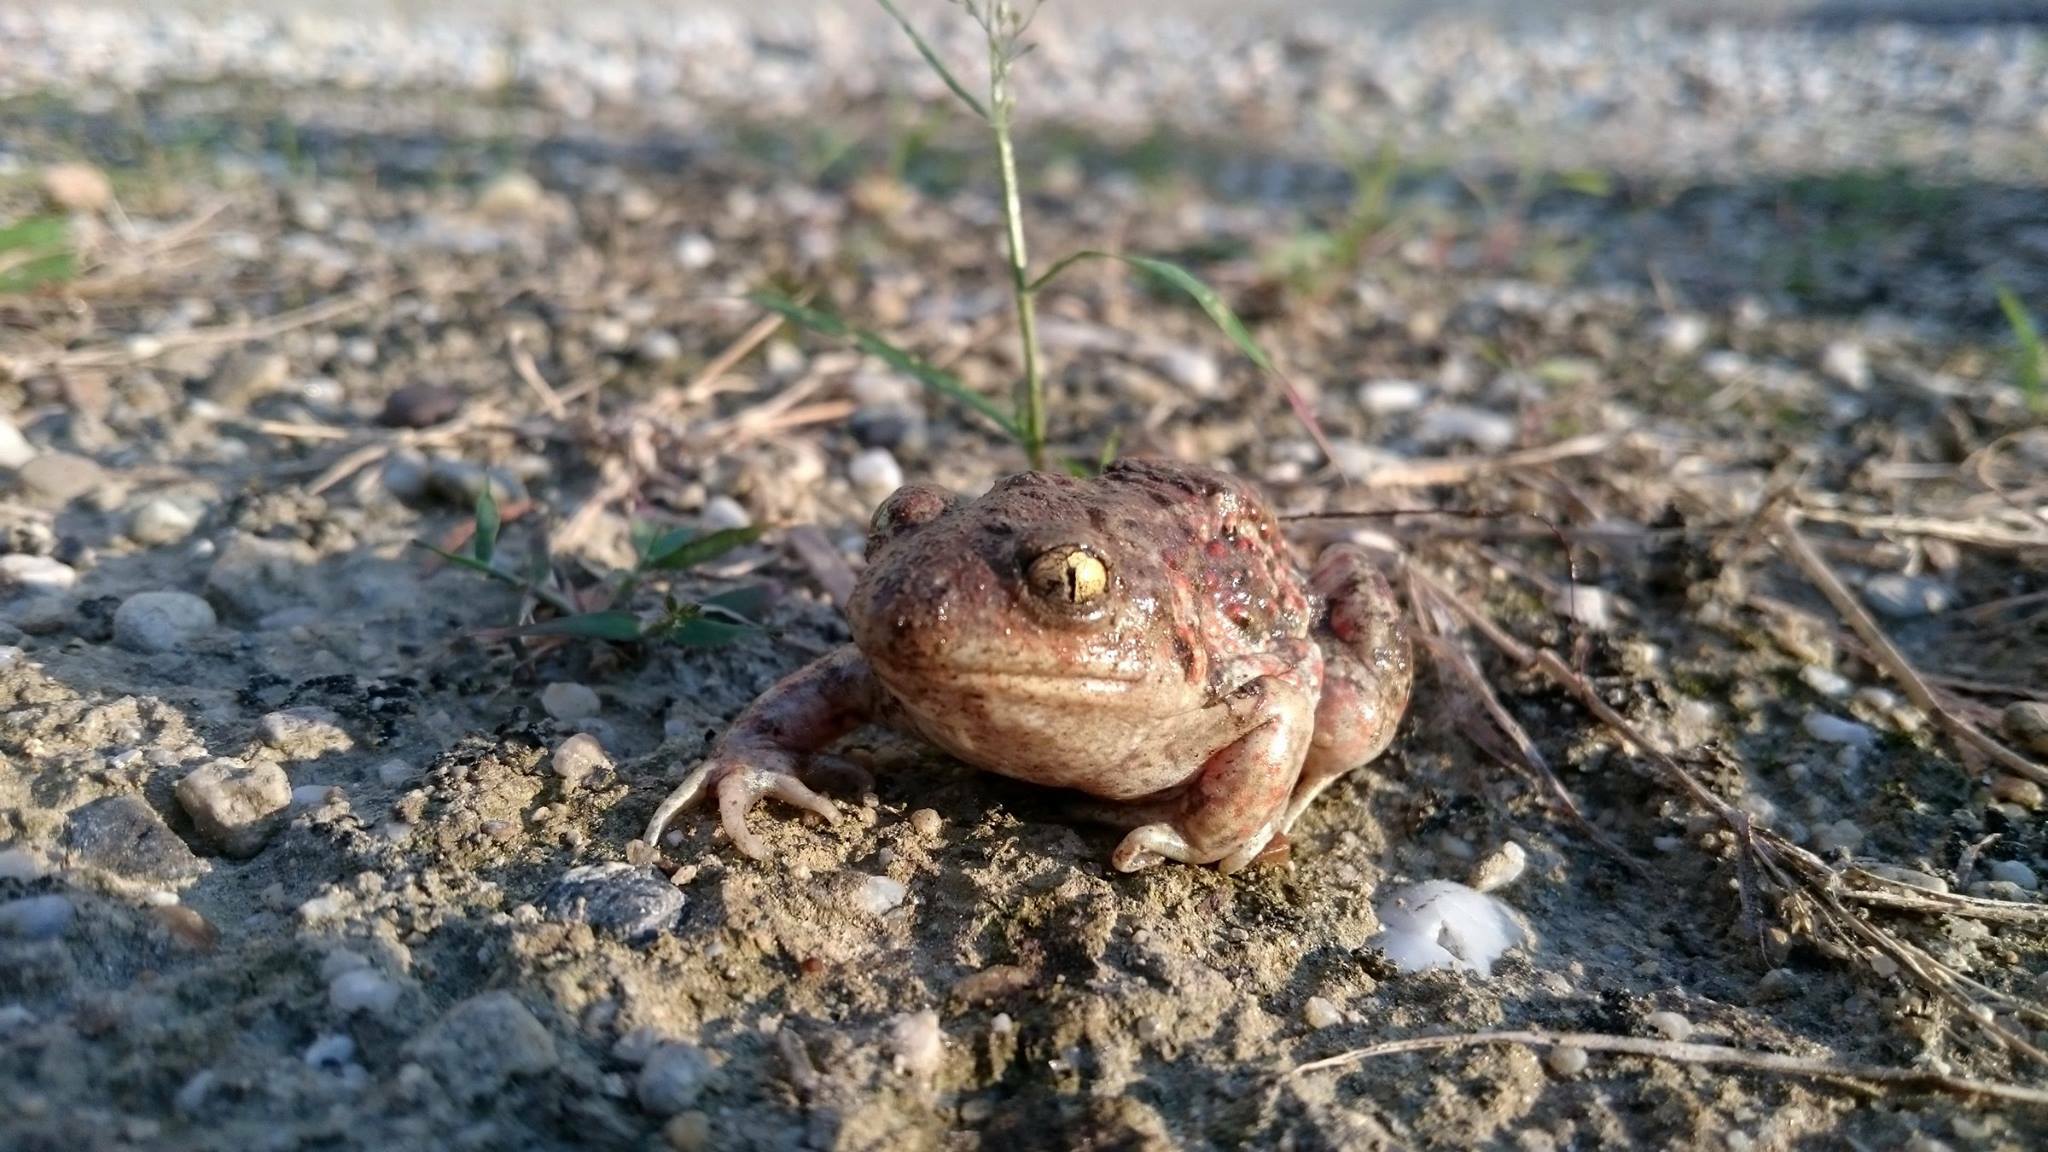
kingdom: Animalia
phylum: Chordata
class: Amphibia
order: Anura
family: Pelobatidae
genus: Pelobates
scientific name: Pelobates fuscus
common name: Common eurasian spadefoot toad
